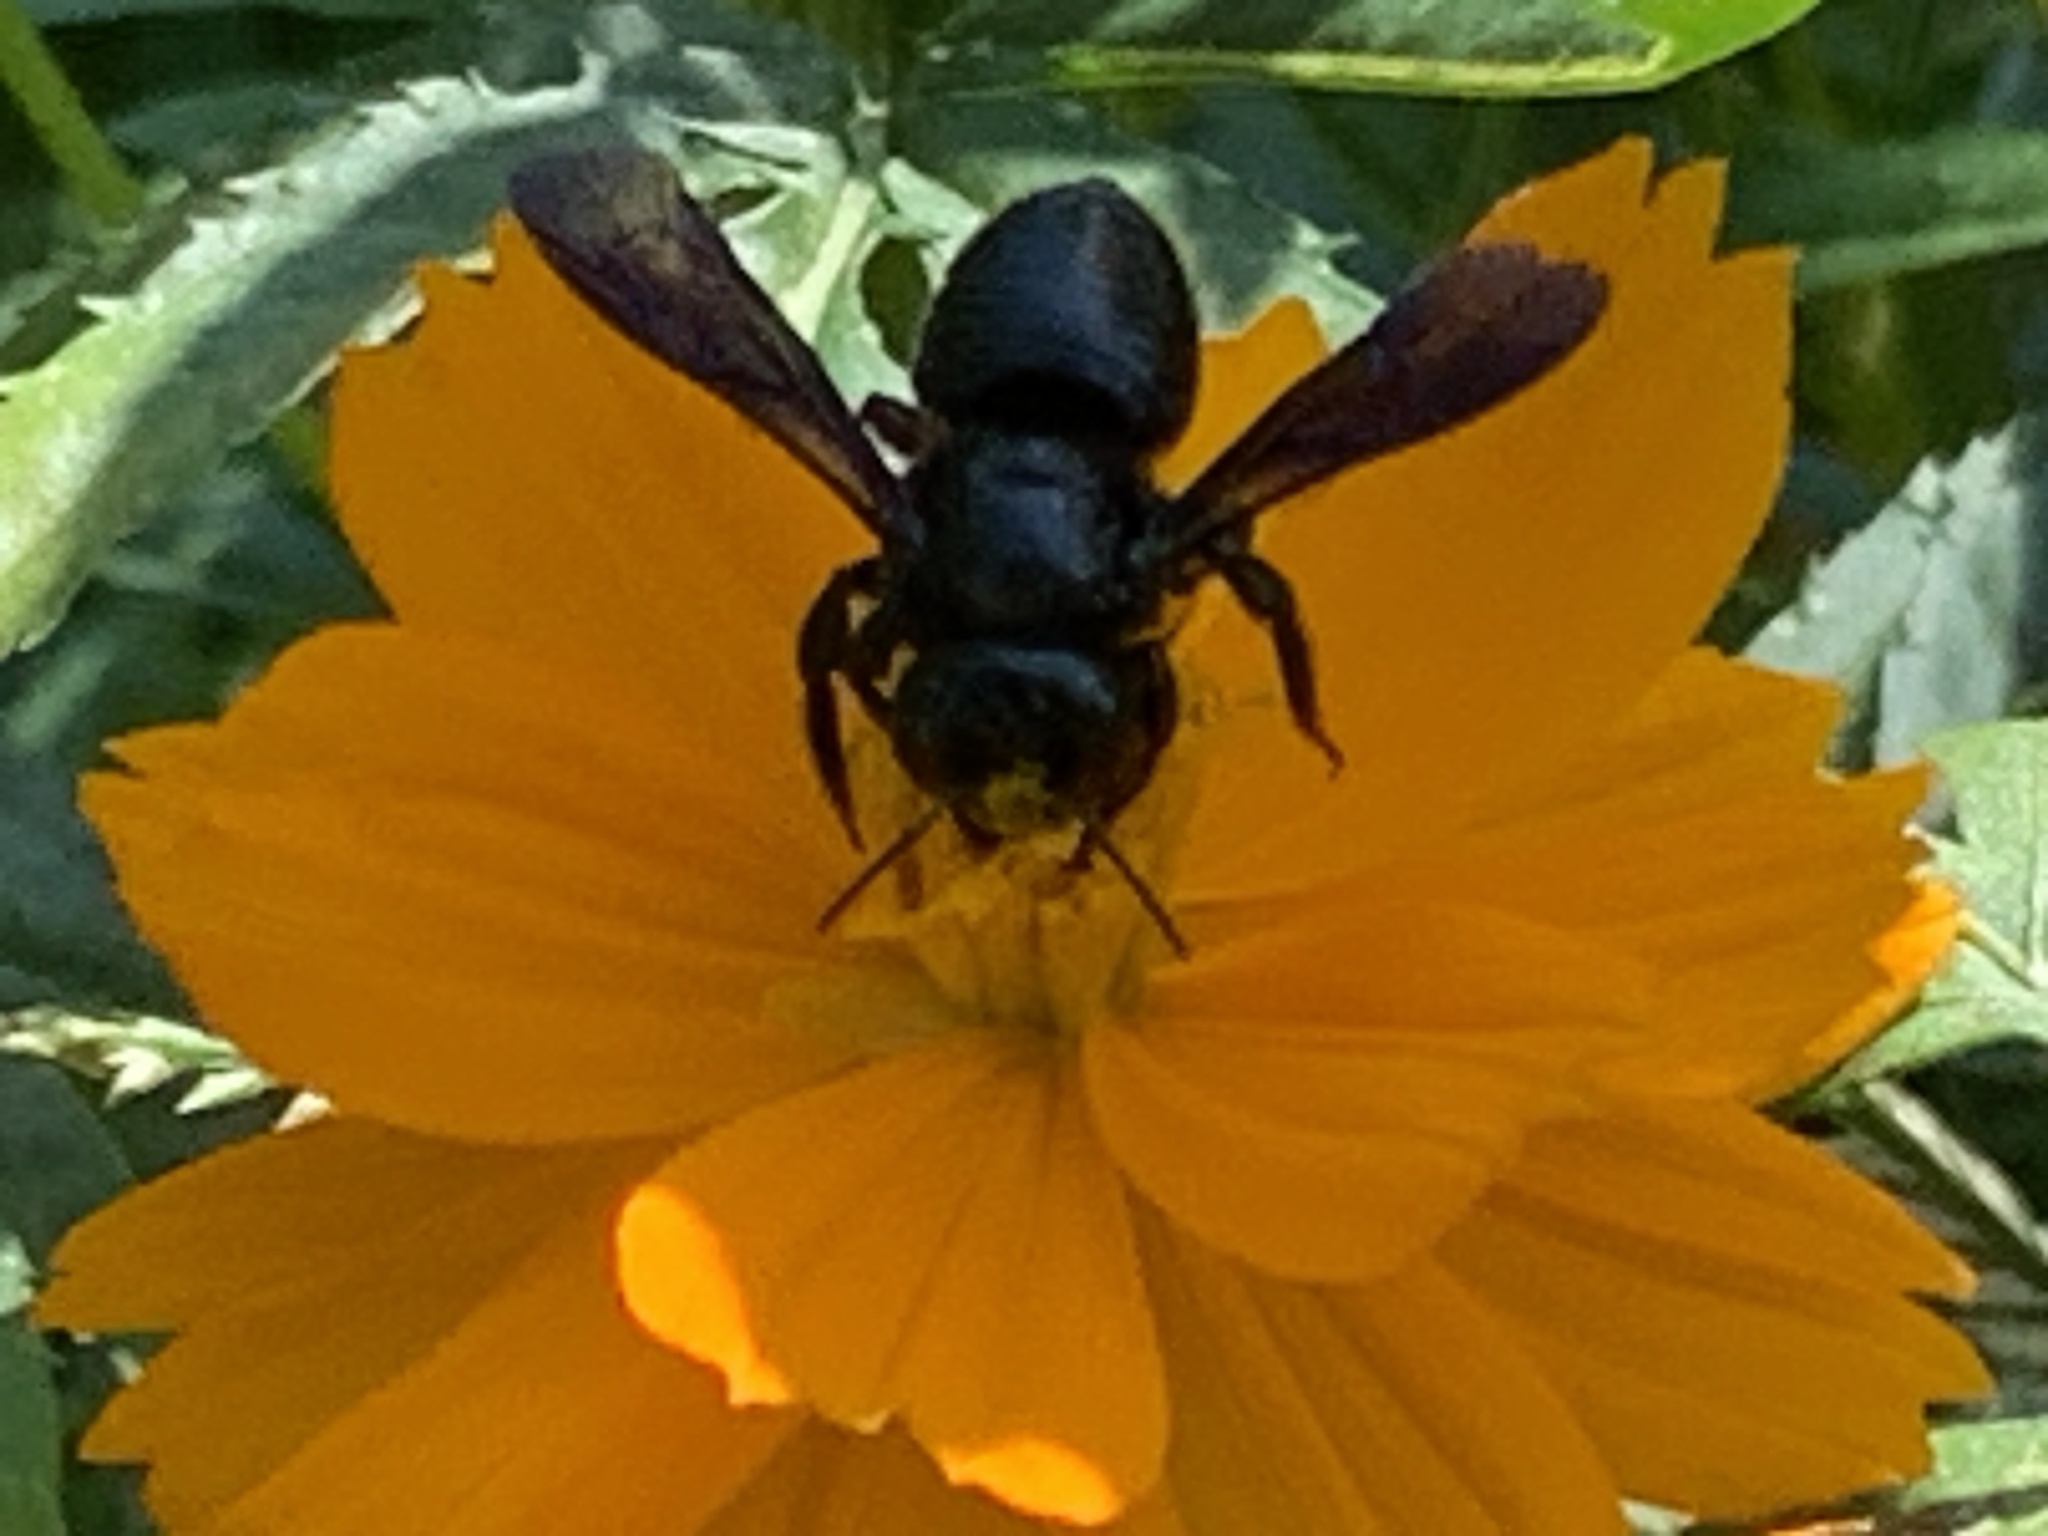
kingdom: Animalia
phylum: Arthropoda
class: Insecta
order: Hymenoptera
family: Megachilidae
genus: Megachile
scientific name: Megachile xylocopoides
